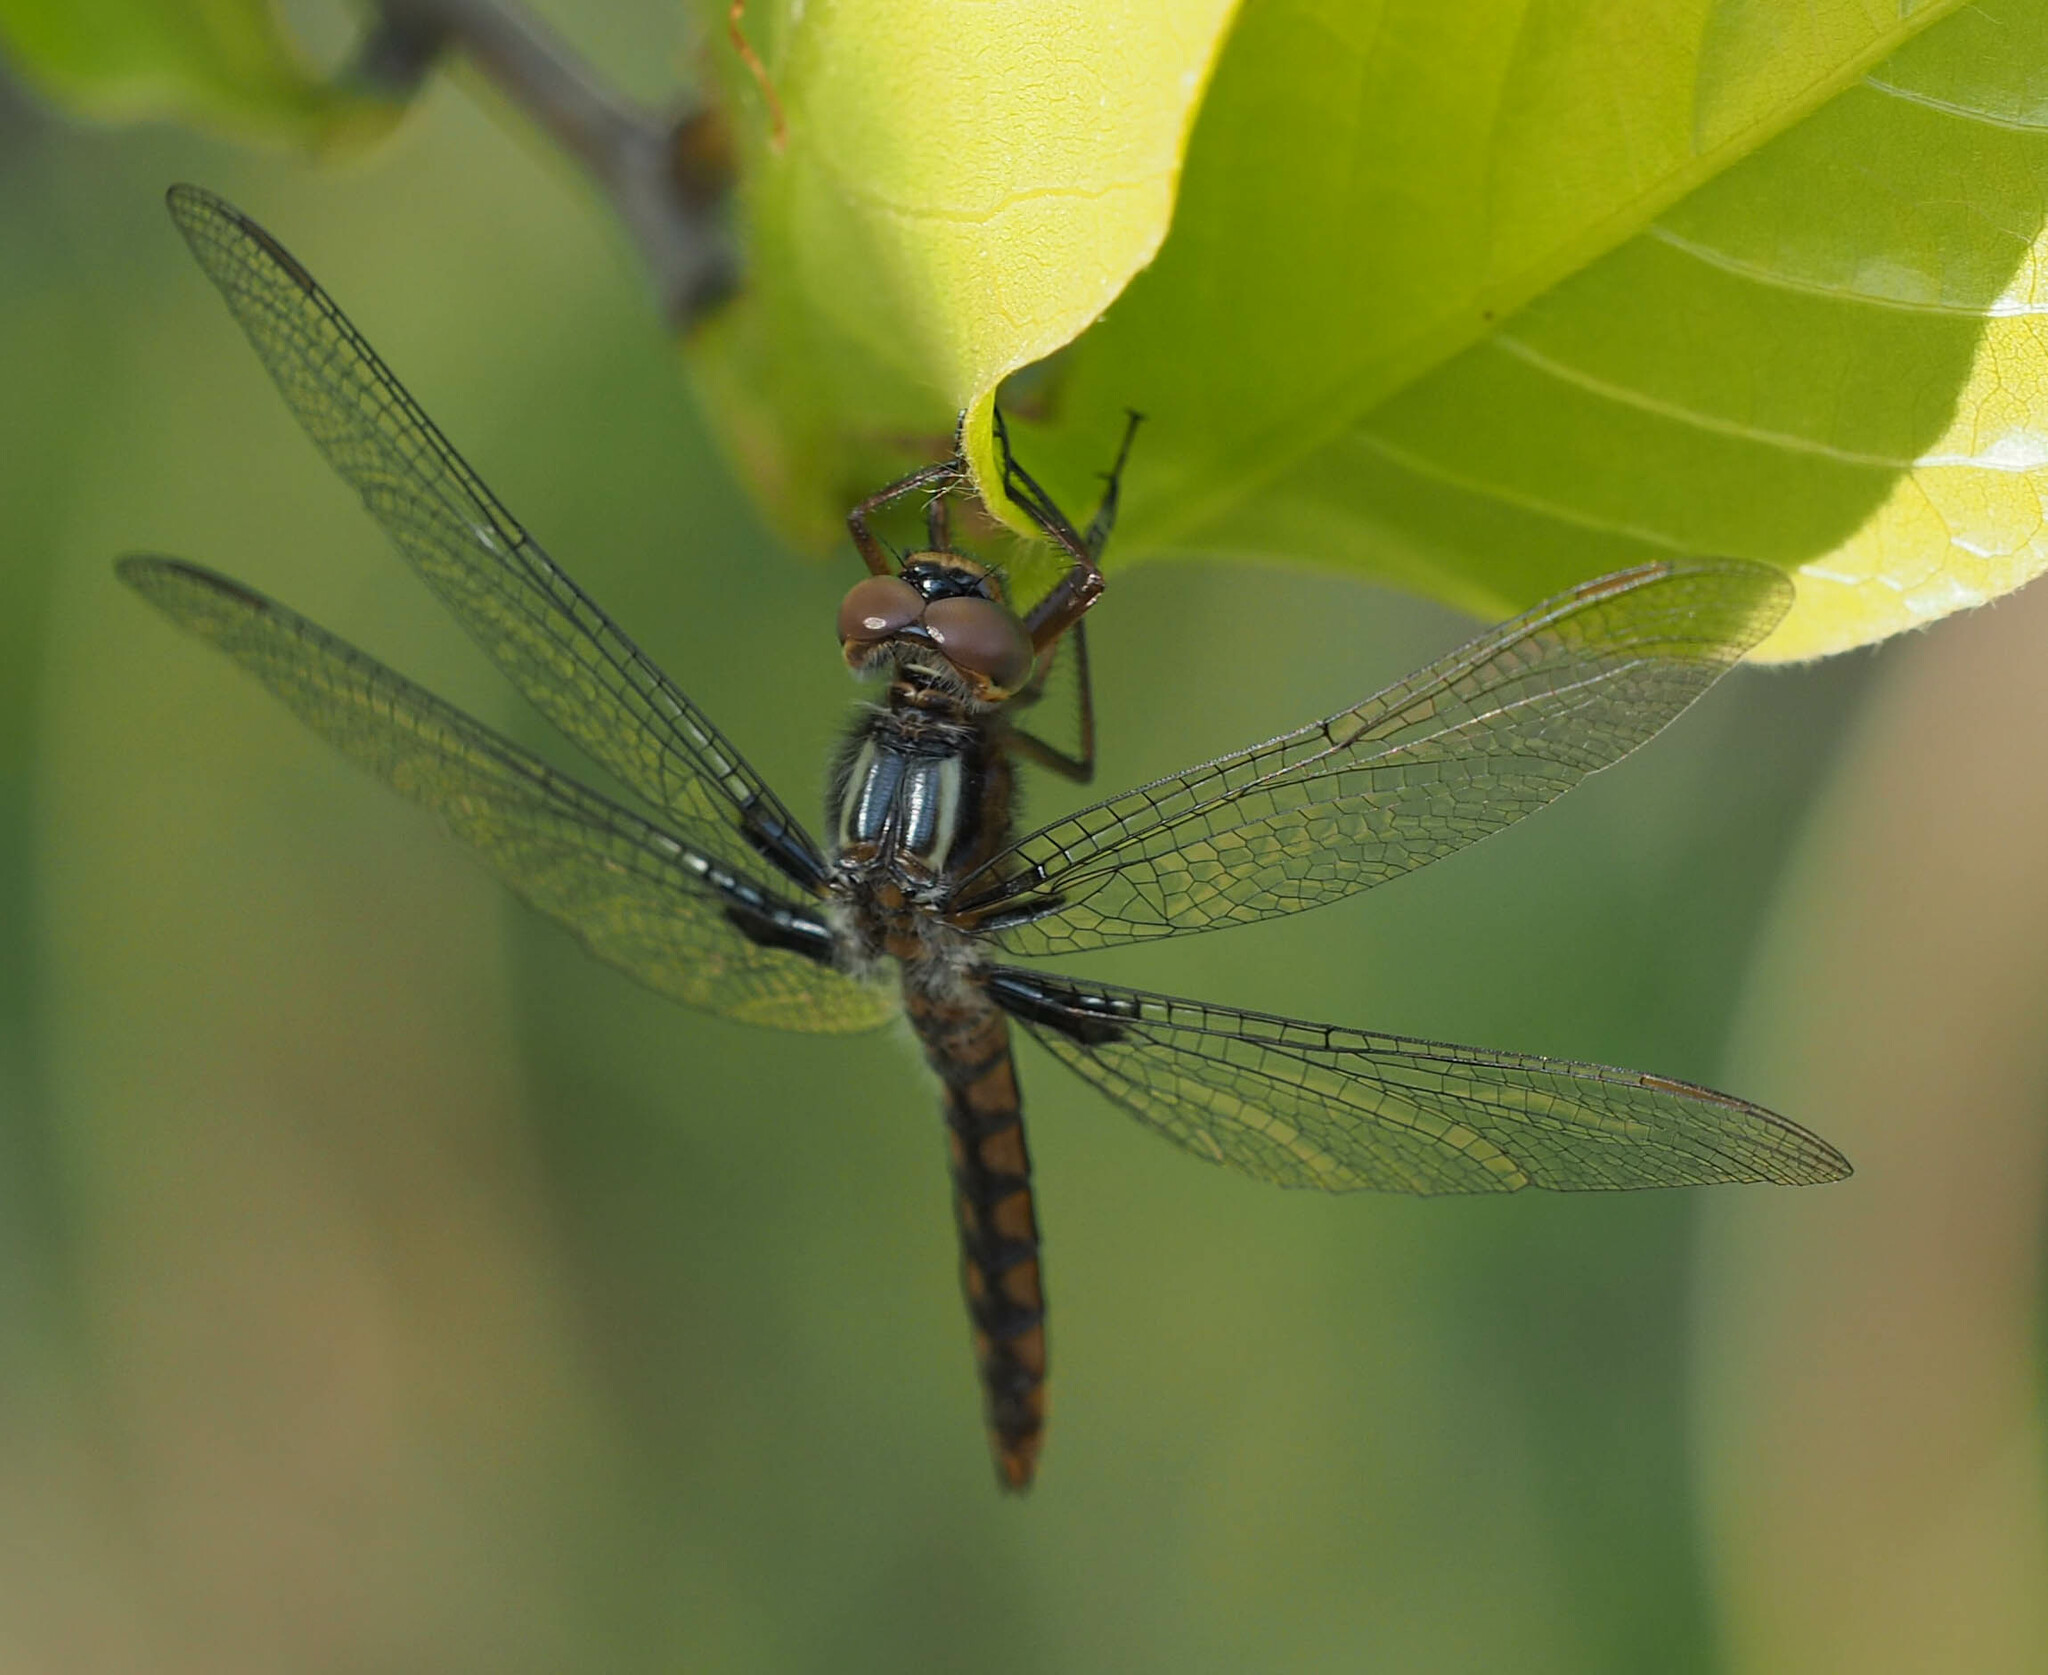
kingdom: Animalia
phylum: Arthropoda
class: Insecta
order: Odonata
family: Libellulidae
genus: Ladona
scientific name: Ladona deplanata
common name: Blue corporal
